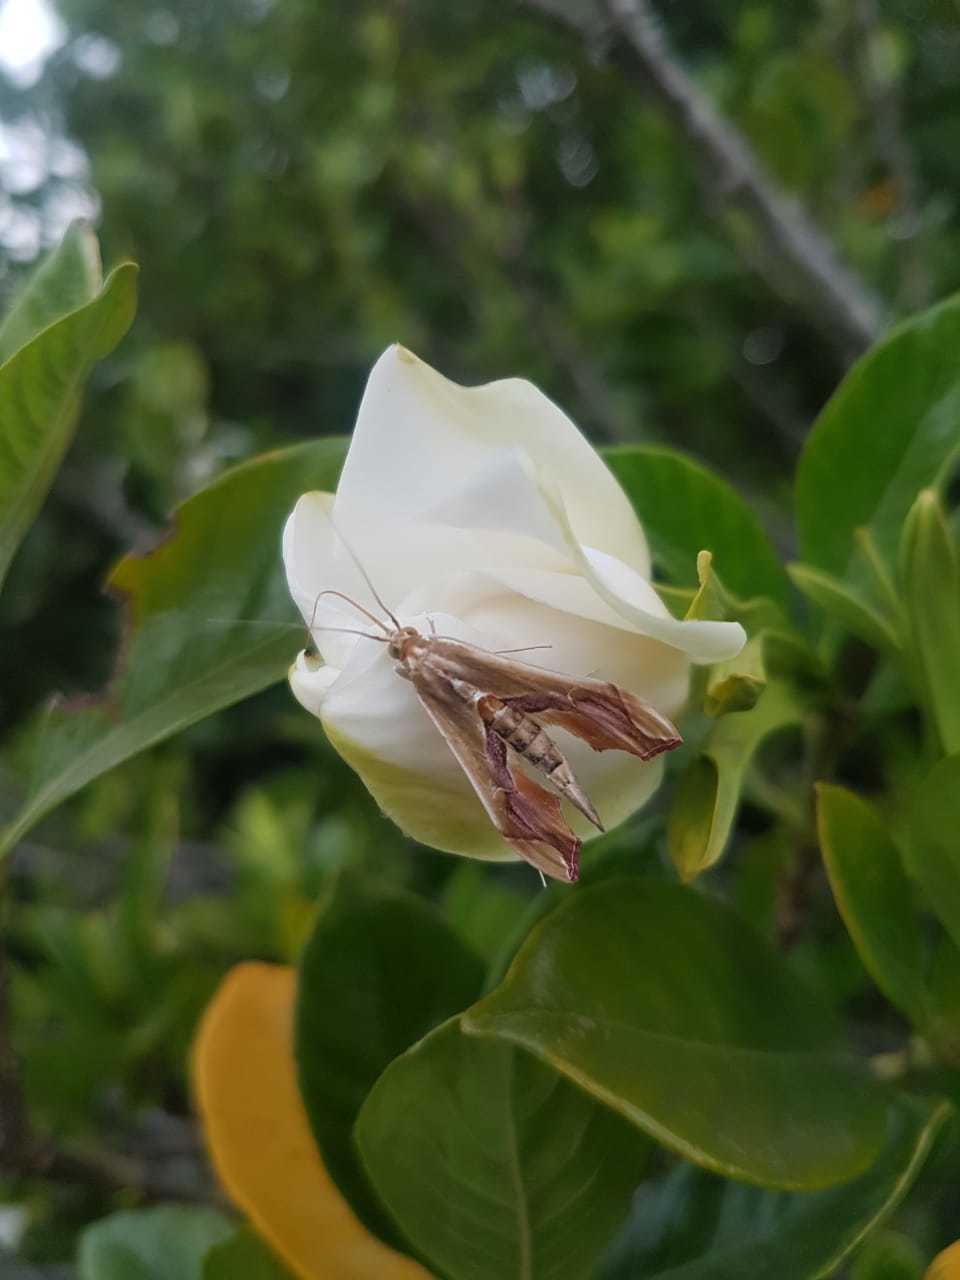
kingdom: Animalia
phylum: Arthropoda
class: Insecta
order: Lepidoptera
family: Crambidae
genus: Agathodes
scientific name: Agathodes designalis
